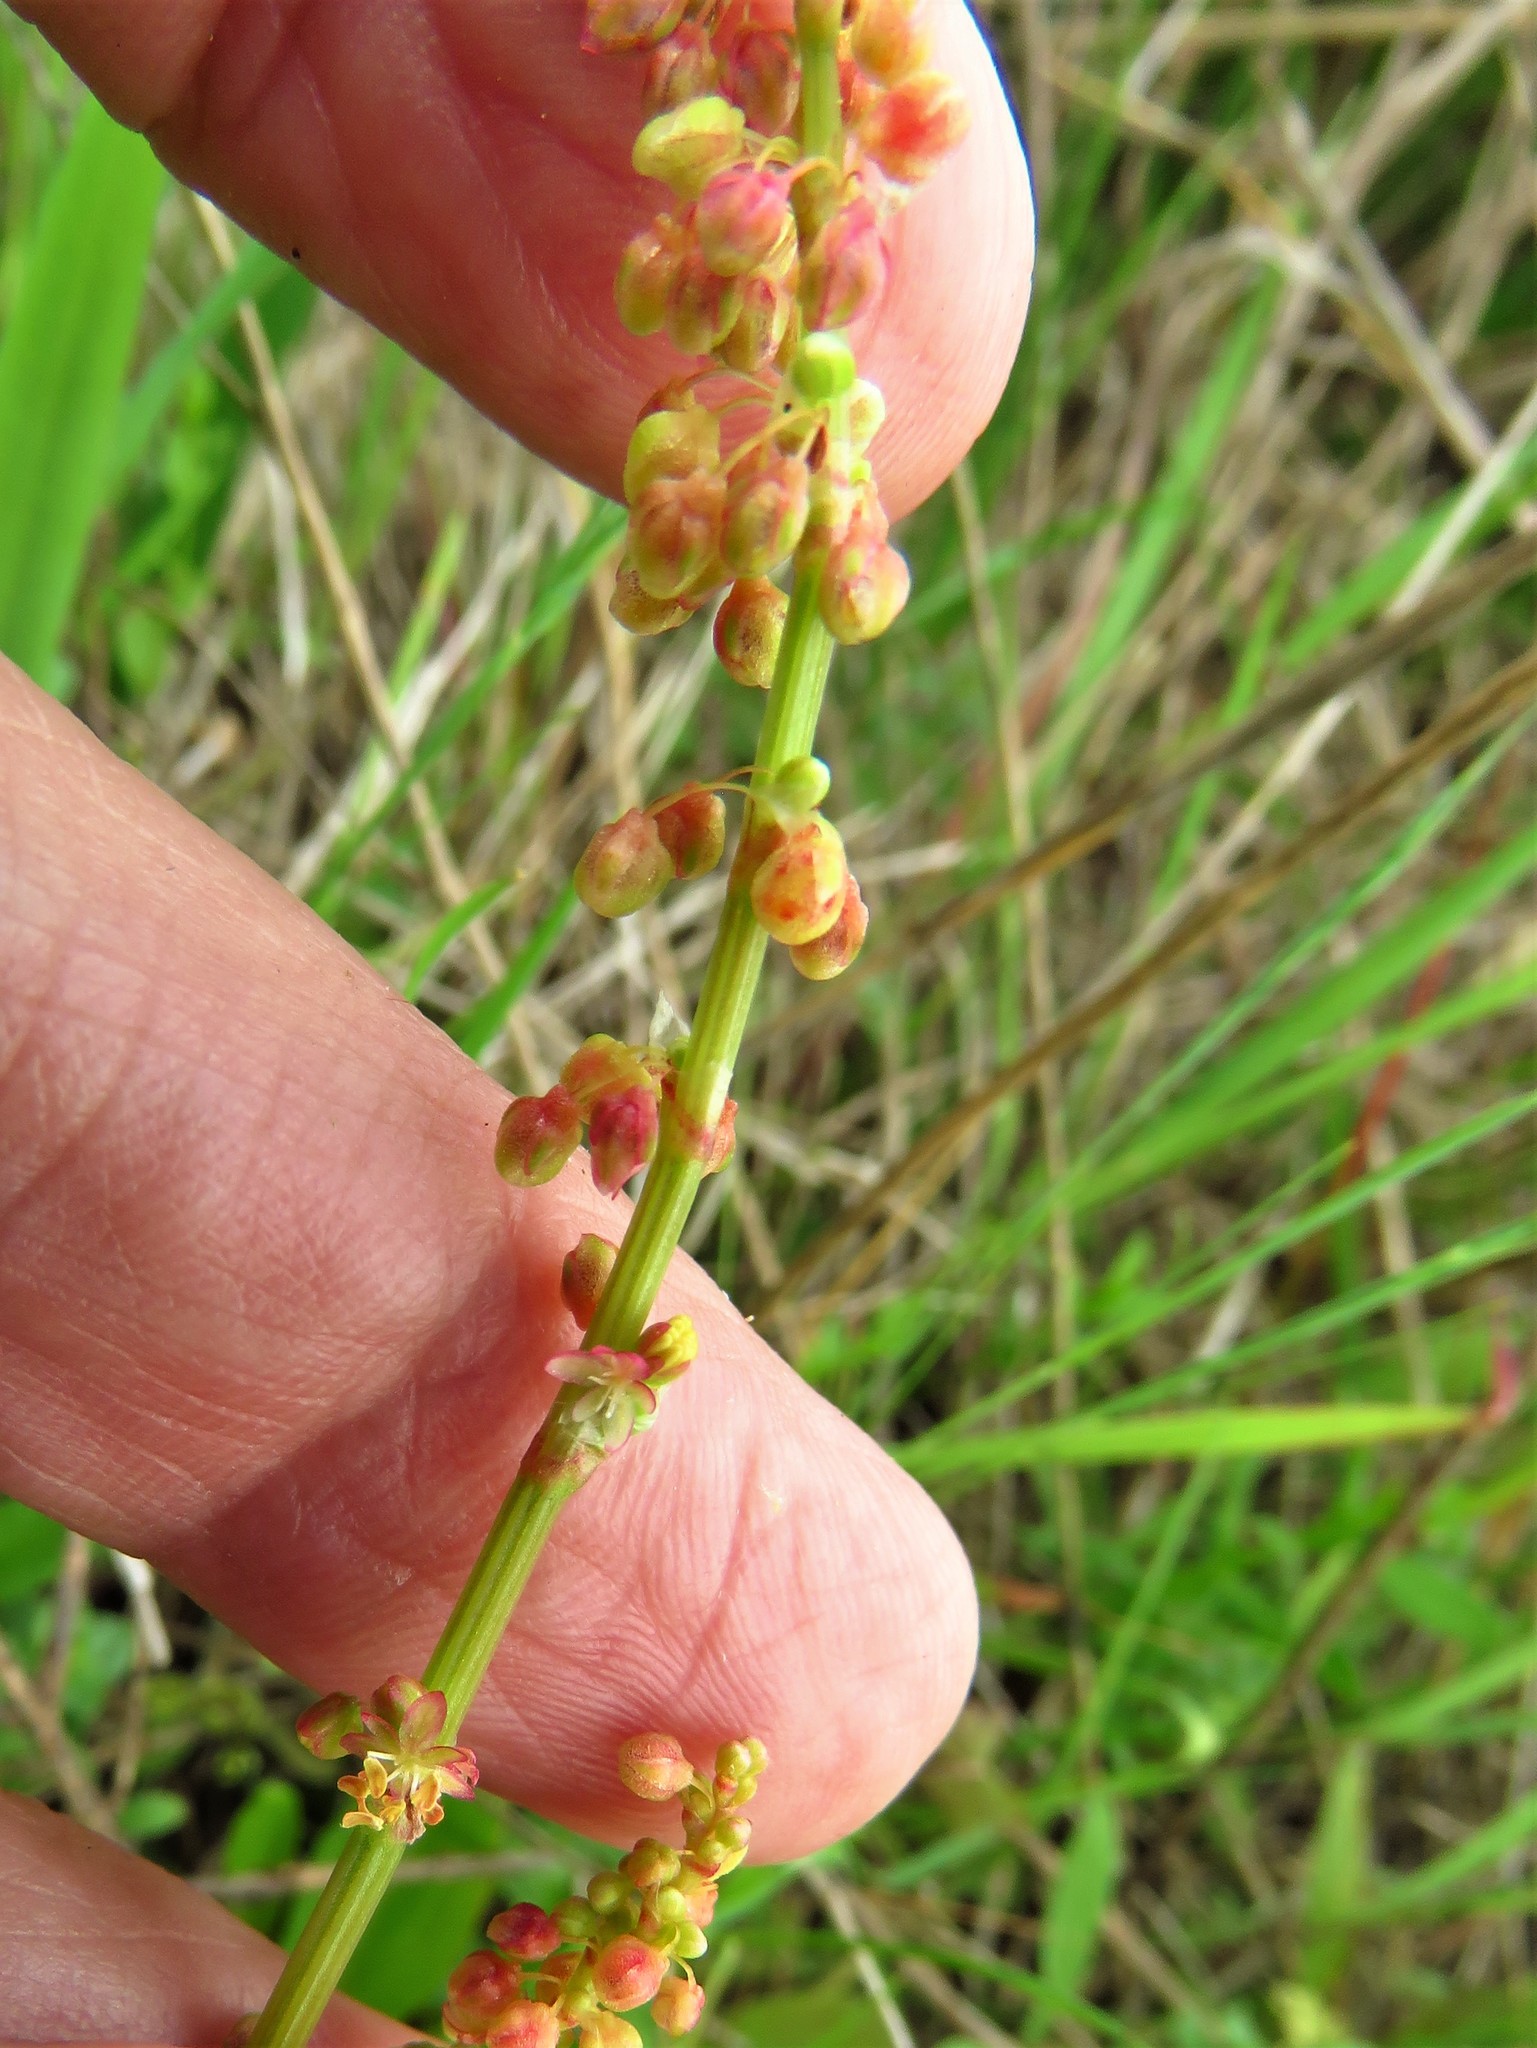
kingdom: Plantae
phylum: Tracheophyta
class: Magnoliopsida
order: Caryophyllales
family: Polygonaceae
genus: Rumex
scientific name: Rumex hastatulus
